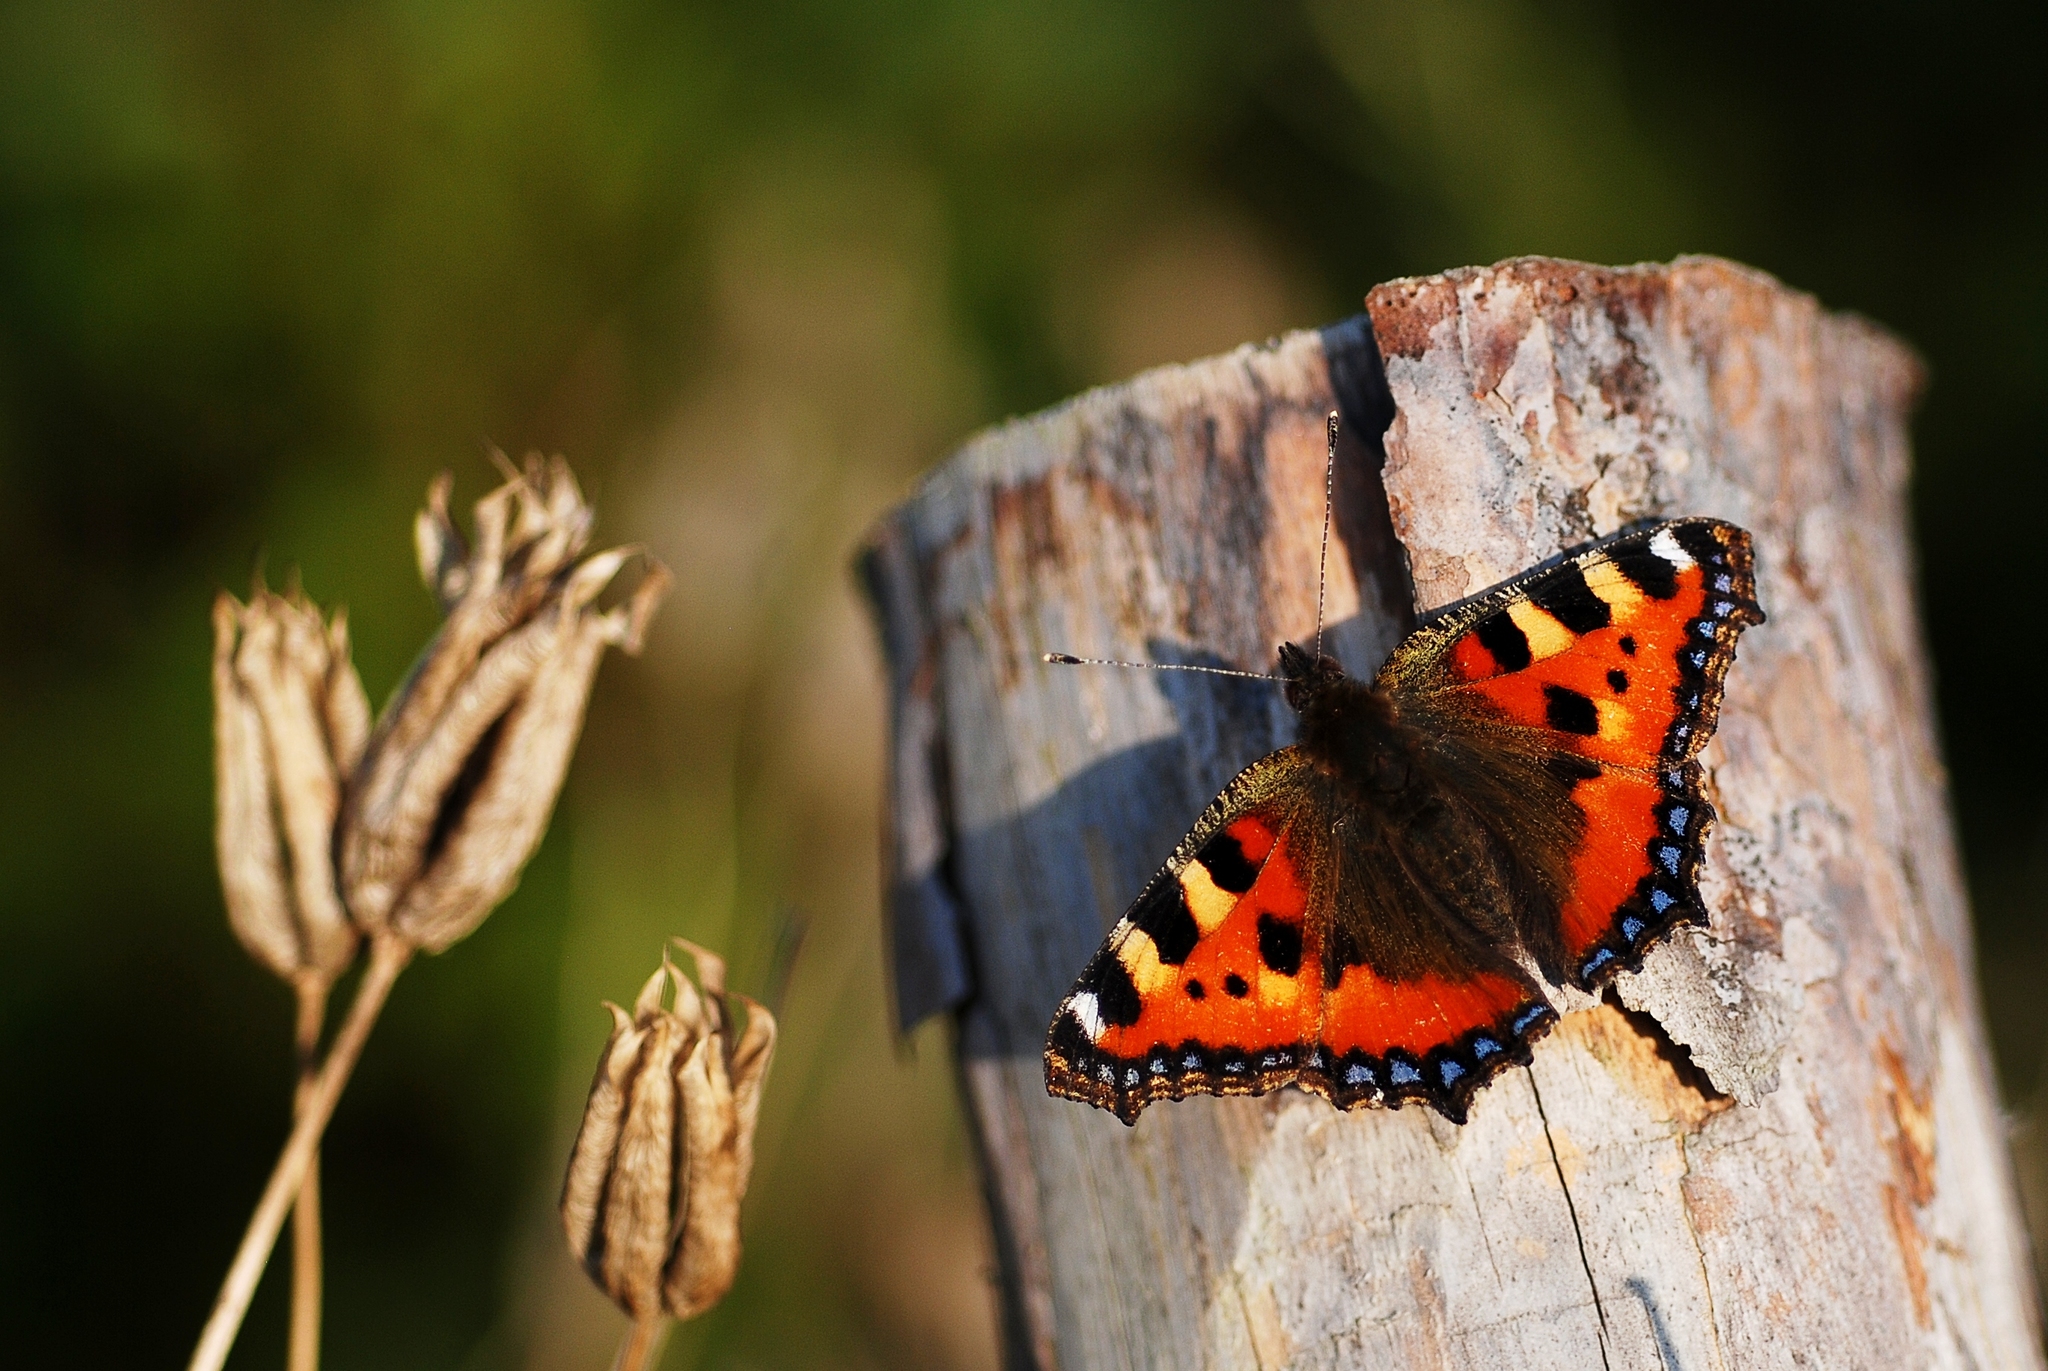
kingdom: Animalia
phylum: Arthropoda
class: Insecta
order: Lepidoptera
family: Nymphalidae
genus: Aglais
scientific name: Aglais urticae
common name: Small tortoiseshell
